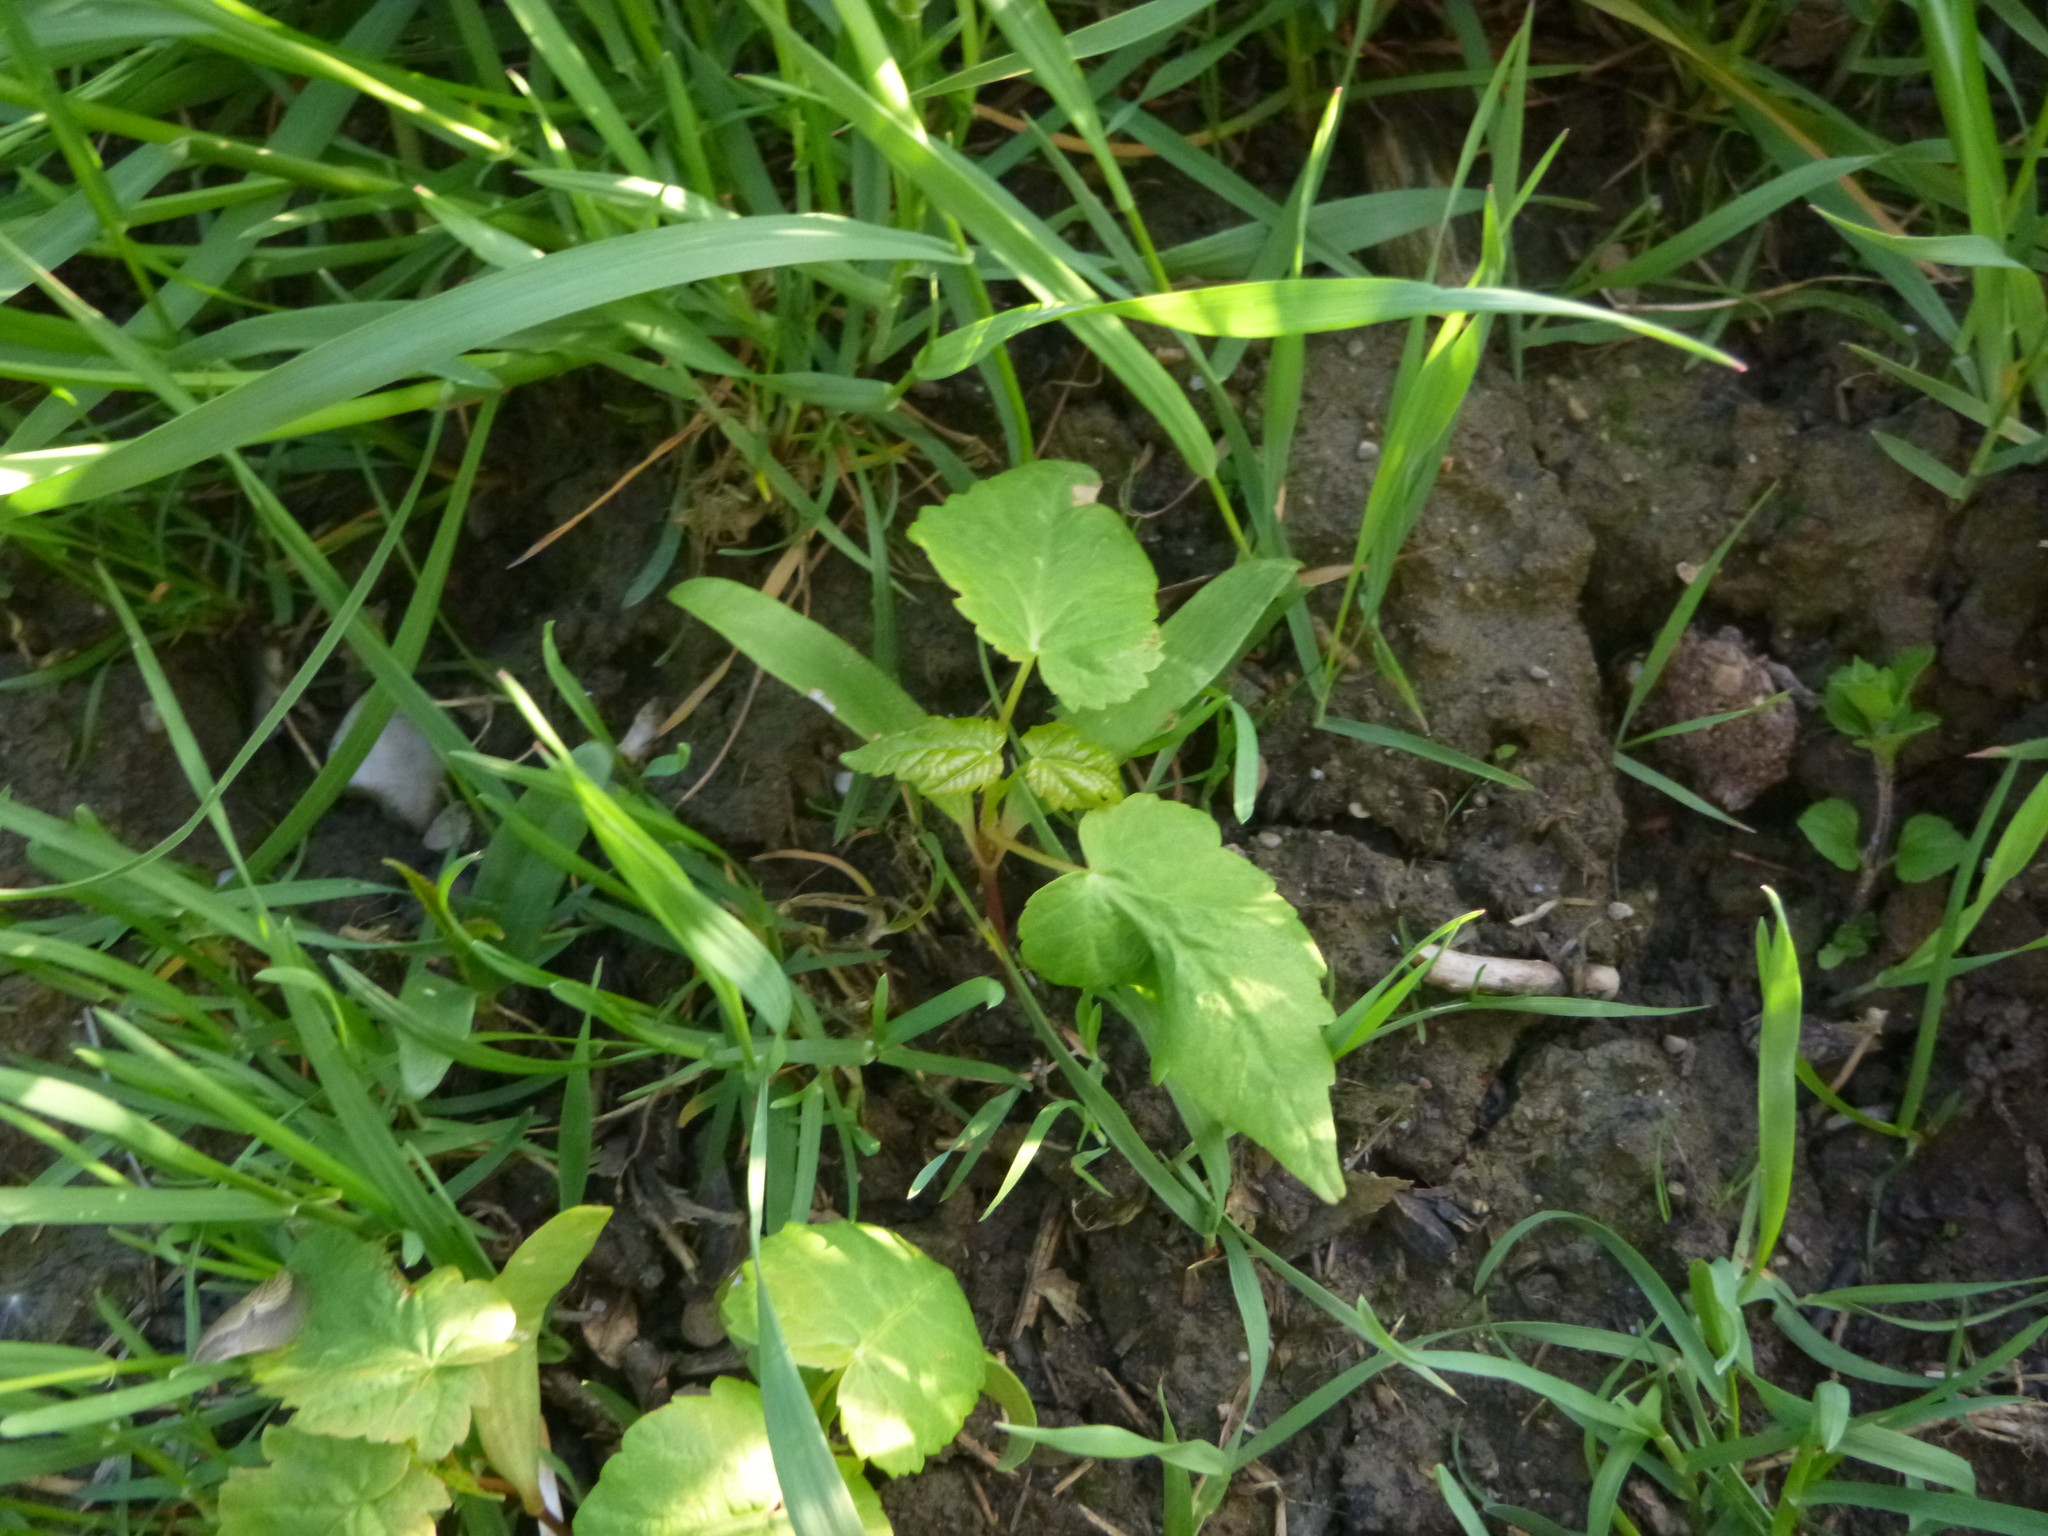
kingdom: Plantae
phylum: Tracheophyta
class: Magnoliopsida
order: Sapindales
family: Sapindaceae
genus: Acer
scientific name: Acer pseudoplatanus
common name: Sycamore
